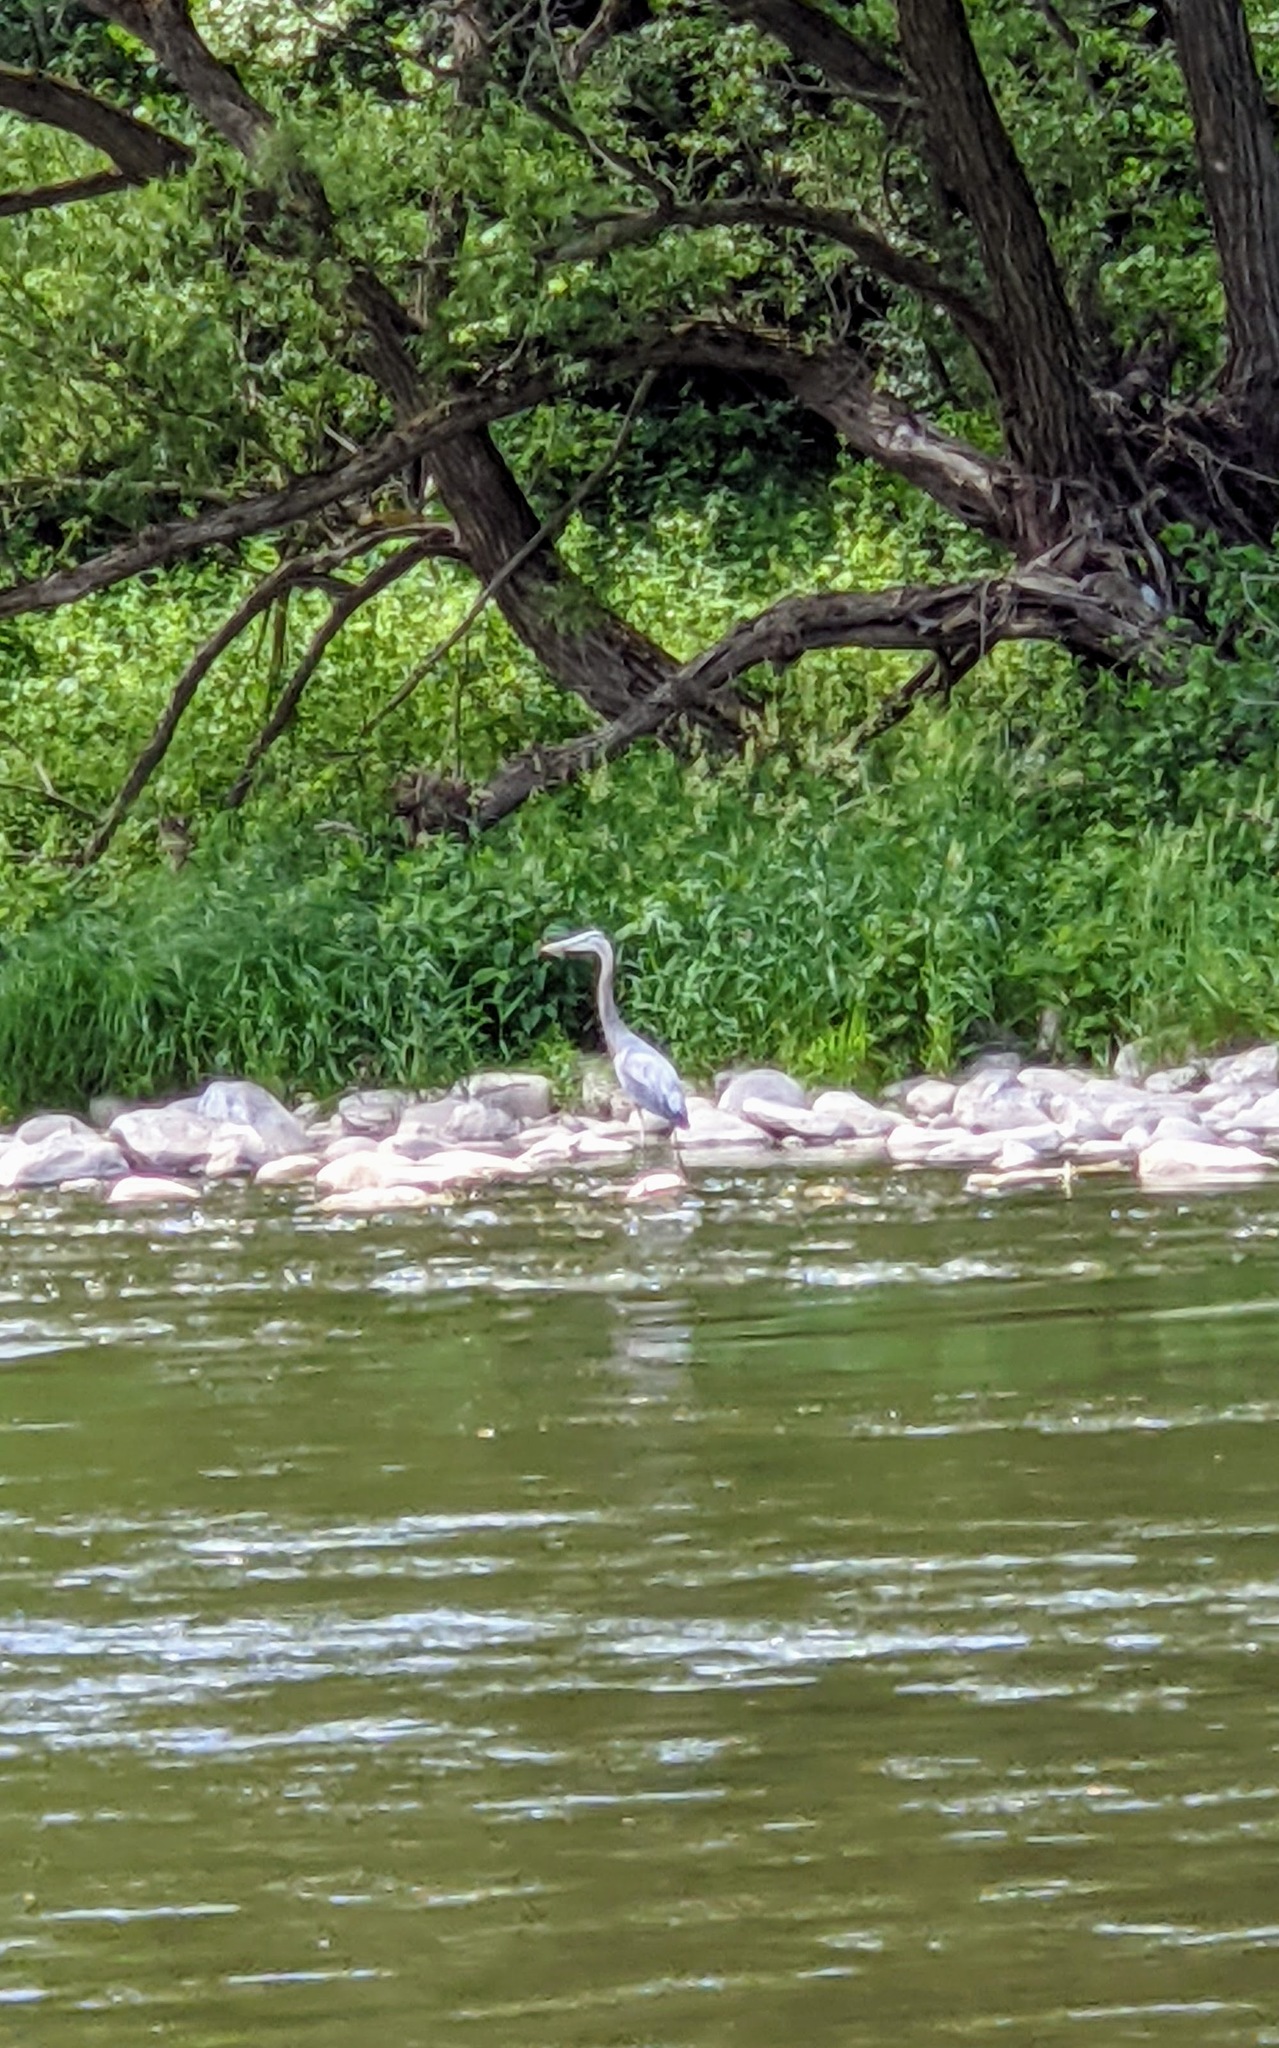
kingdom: Animalia
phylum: Chordata
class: Aves
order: Pelecaniformes
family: Ardeidae
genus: Ardea
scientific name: Ardea herodias
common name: Great blue heron
